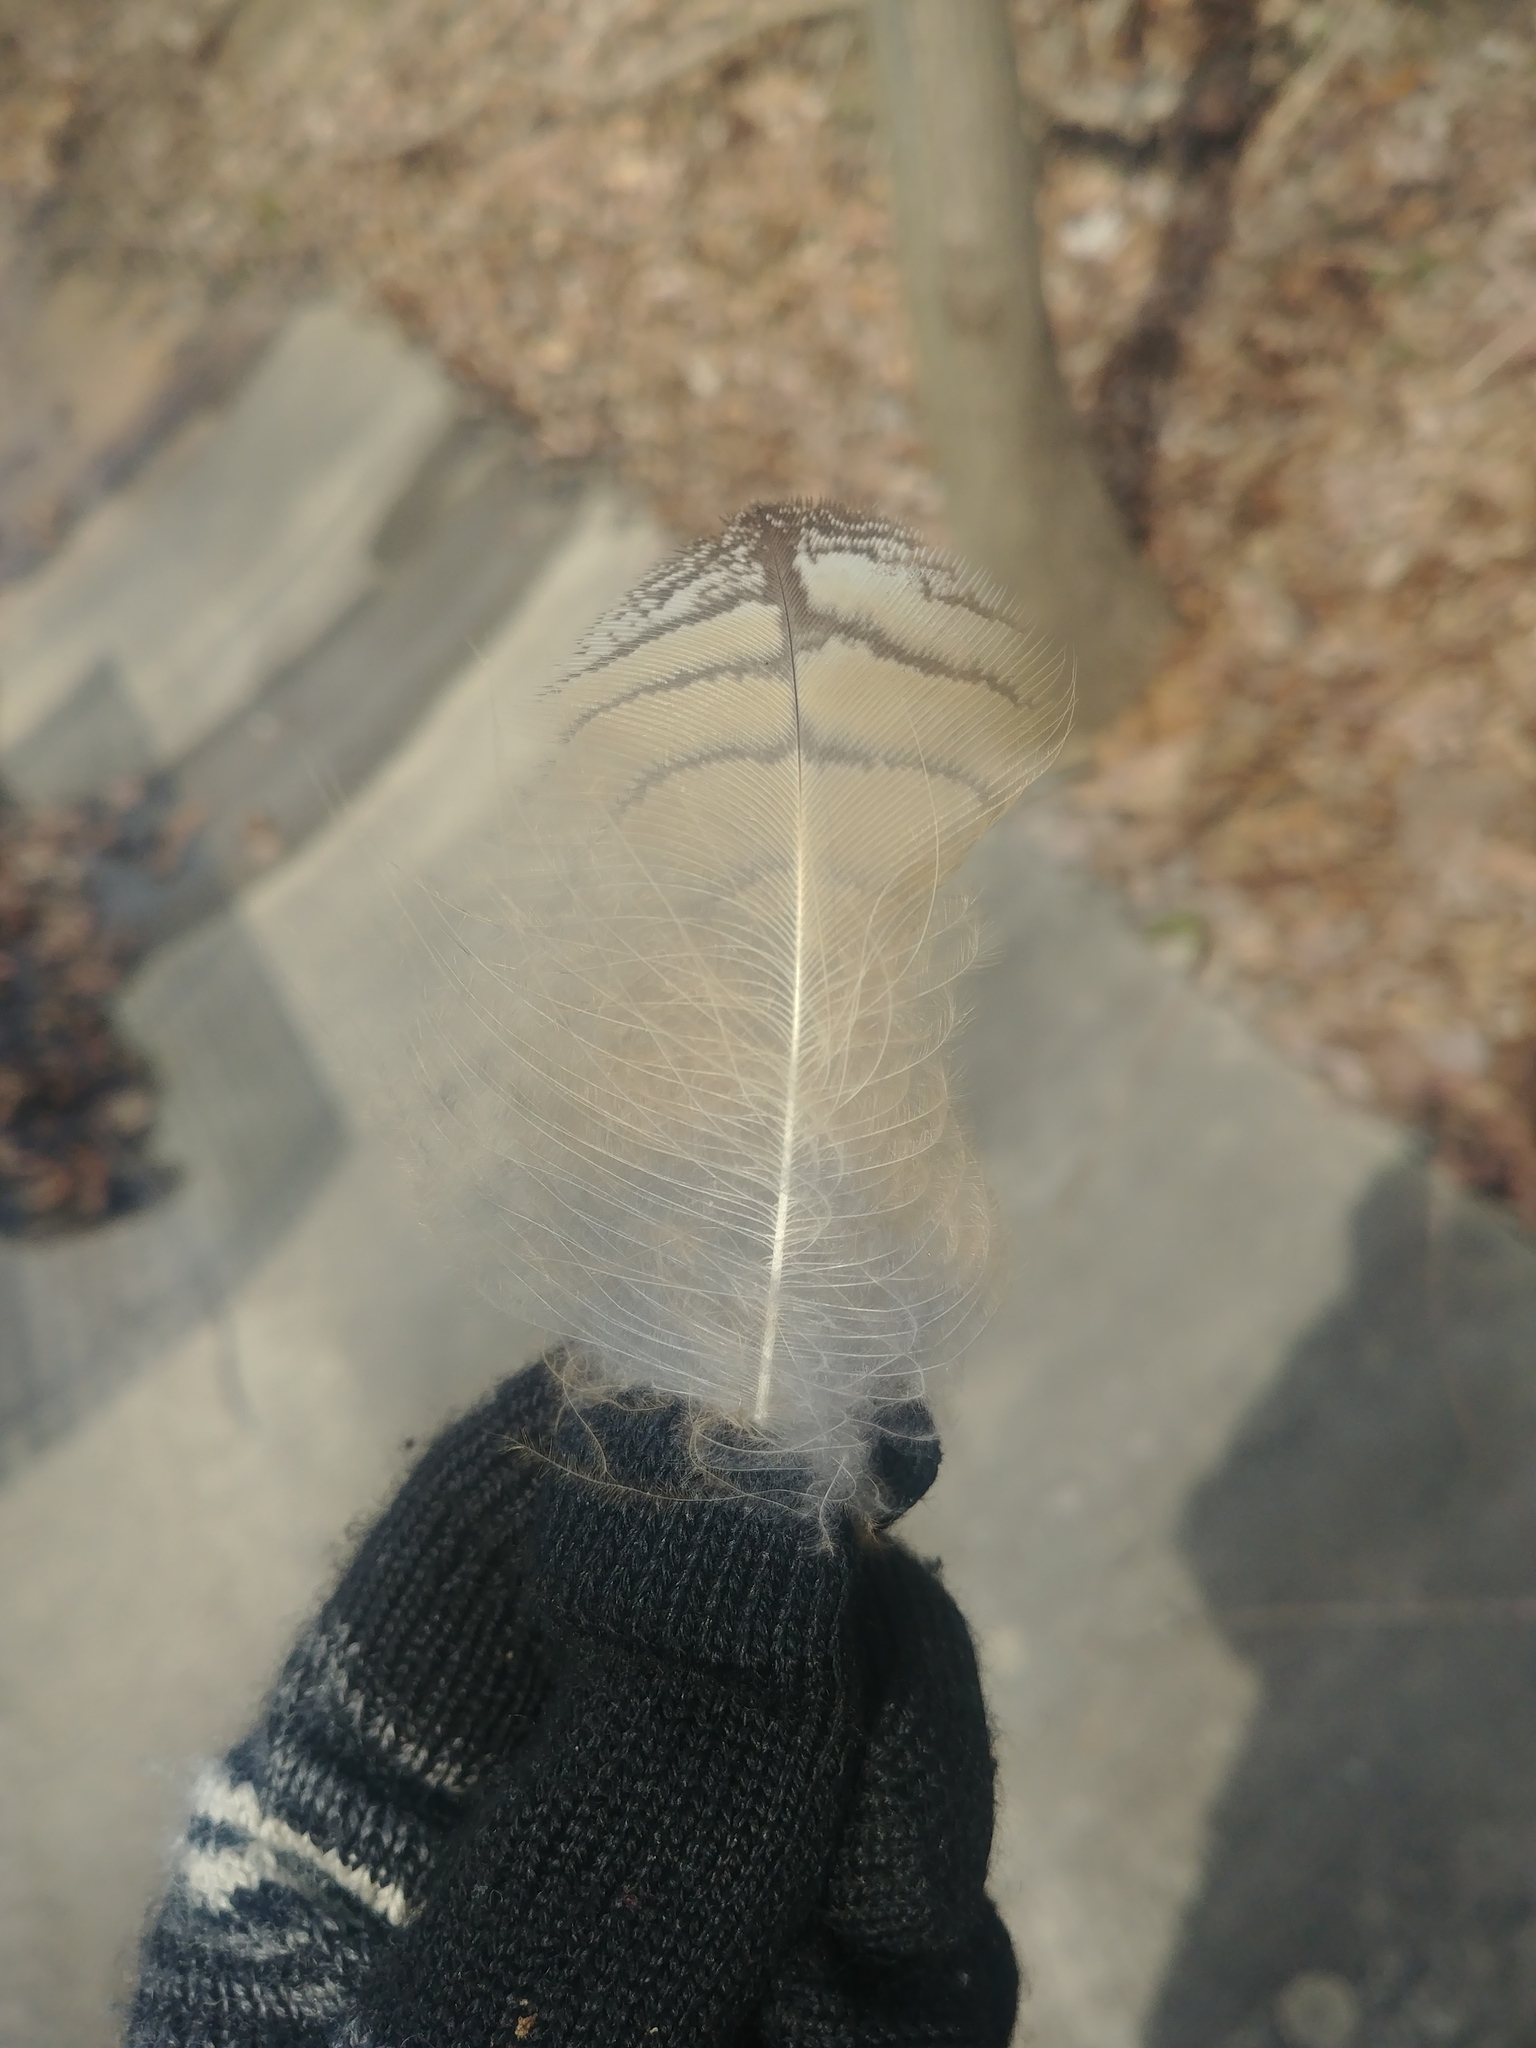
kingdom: Animalia
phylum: Chordata
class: Aves
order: Strigiformes
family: Strigidae
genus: Bubo
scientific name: Bubo virginianus
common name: Great horned owl
